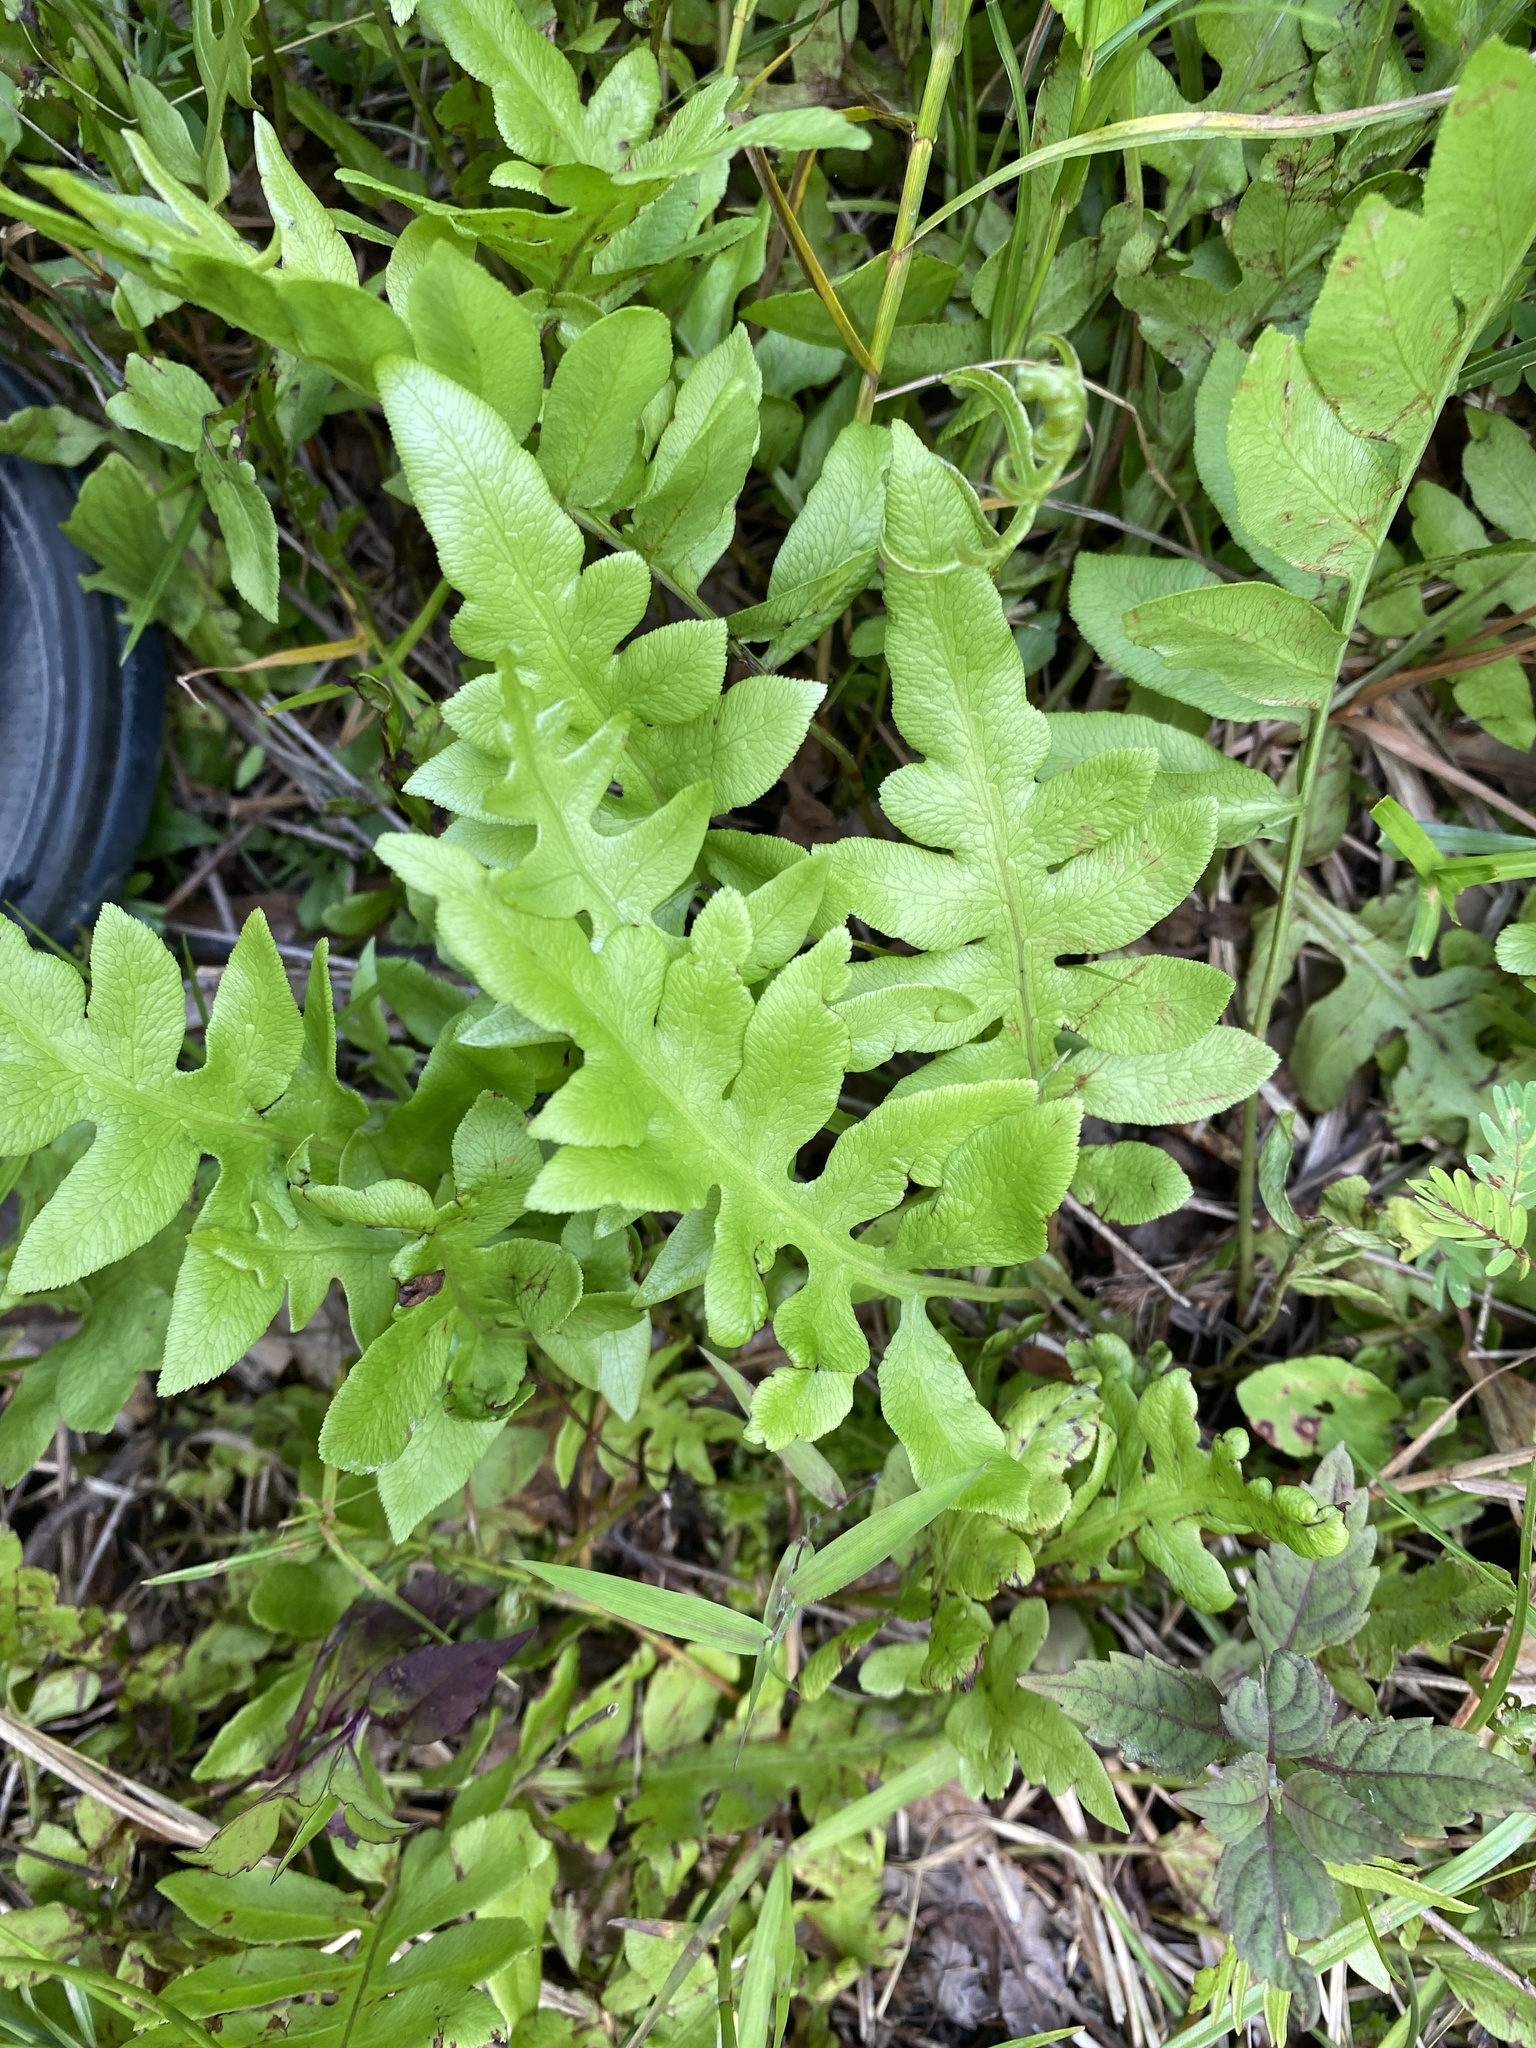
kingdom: Plantae
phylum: Tracheophyta
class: Polypodiopsida
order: Polypodiales
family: Blechnaceae
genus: Lorinseria
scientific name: Lorinseria areolata
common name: Dwarf chain fern
